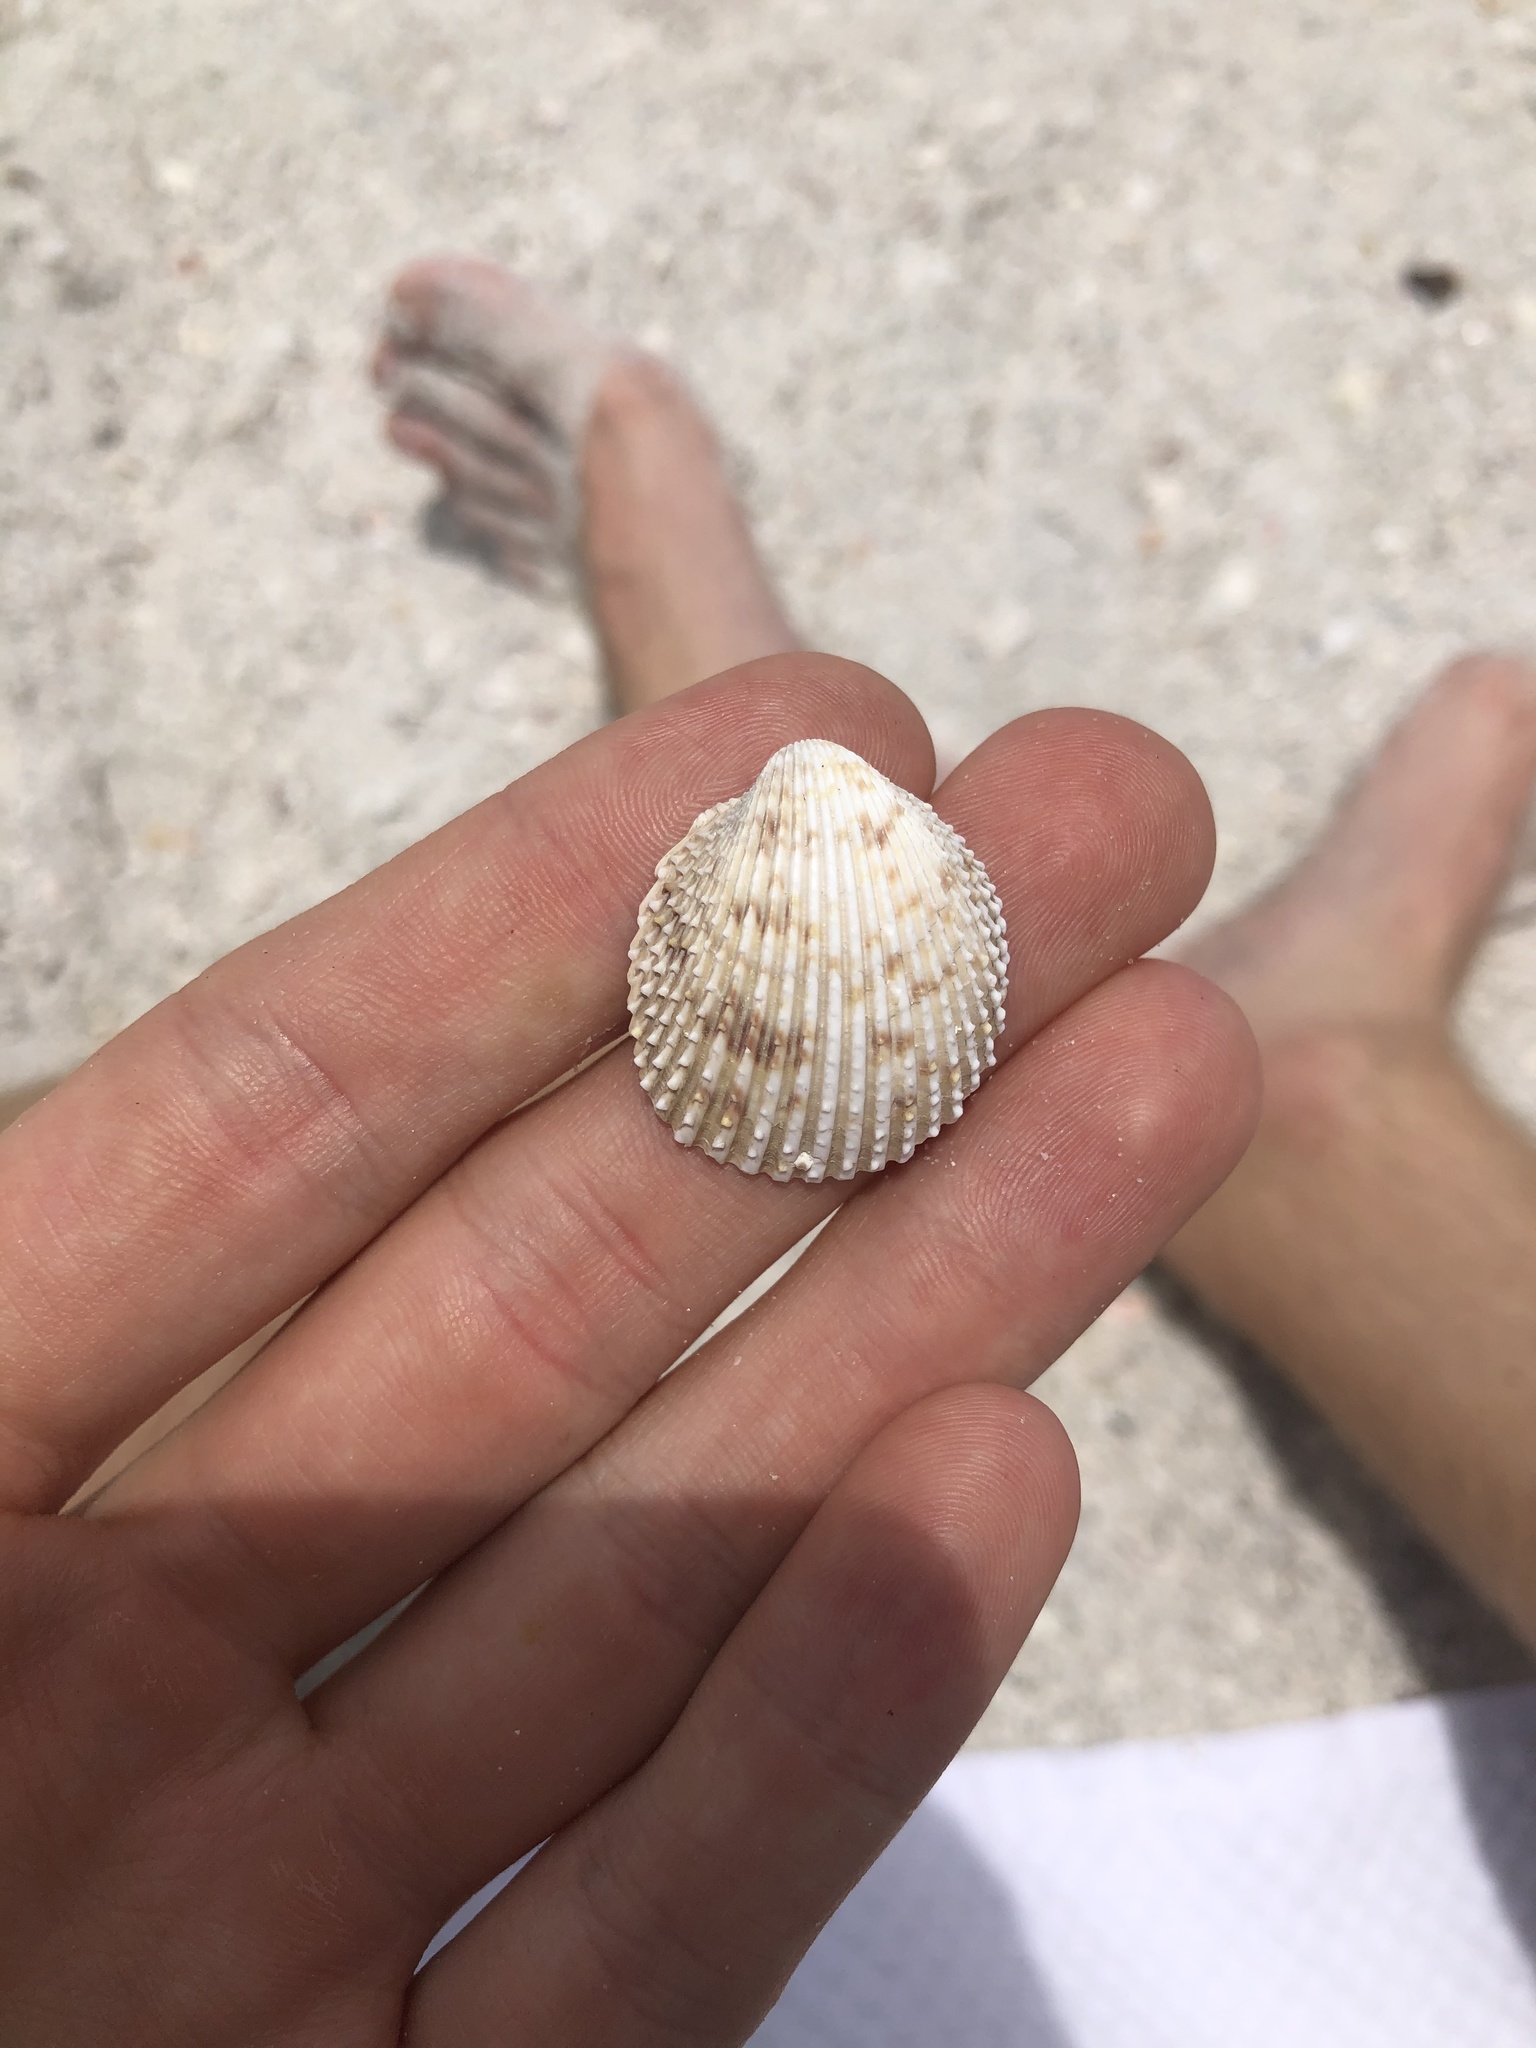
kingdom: Animalia
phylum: Mollusca
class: Bivalvia
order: Cardiida
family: Cardiidae
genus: Trachycardium
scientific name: Trachycardium egmontianum
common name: Florida pricklycockle
